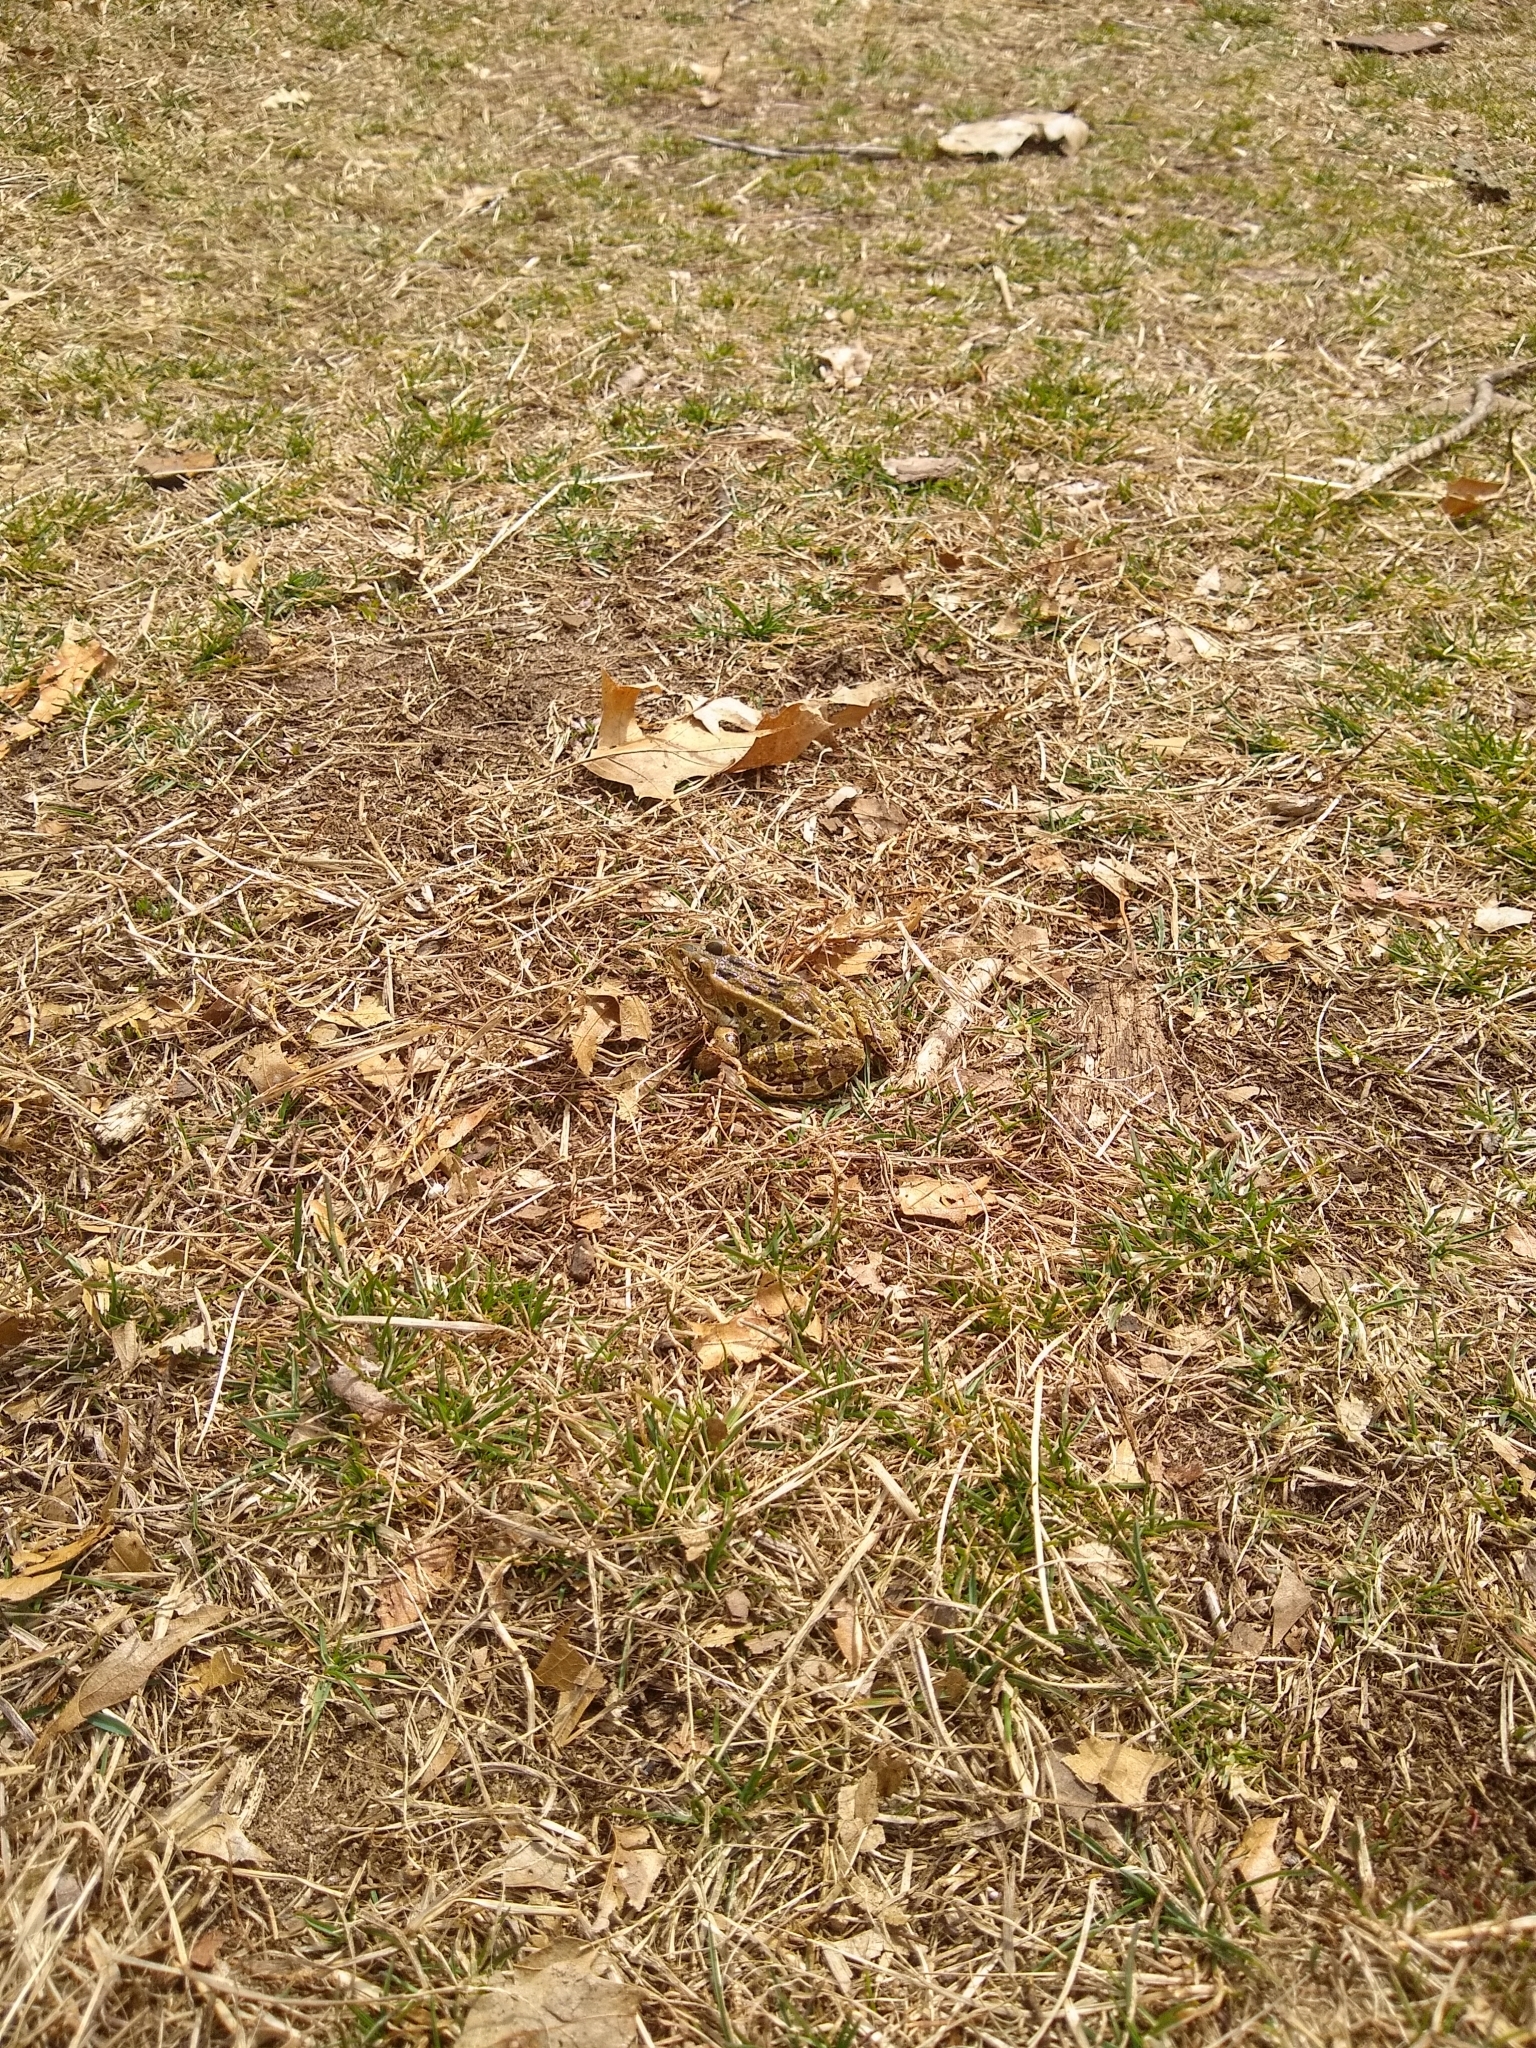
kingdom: Animalia
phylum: Chordata
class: Amphibia
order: Anura
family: Ranidae
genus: Lithobates
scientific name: Lithobates pipiens
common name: Northern leopard frog
